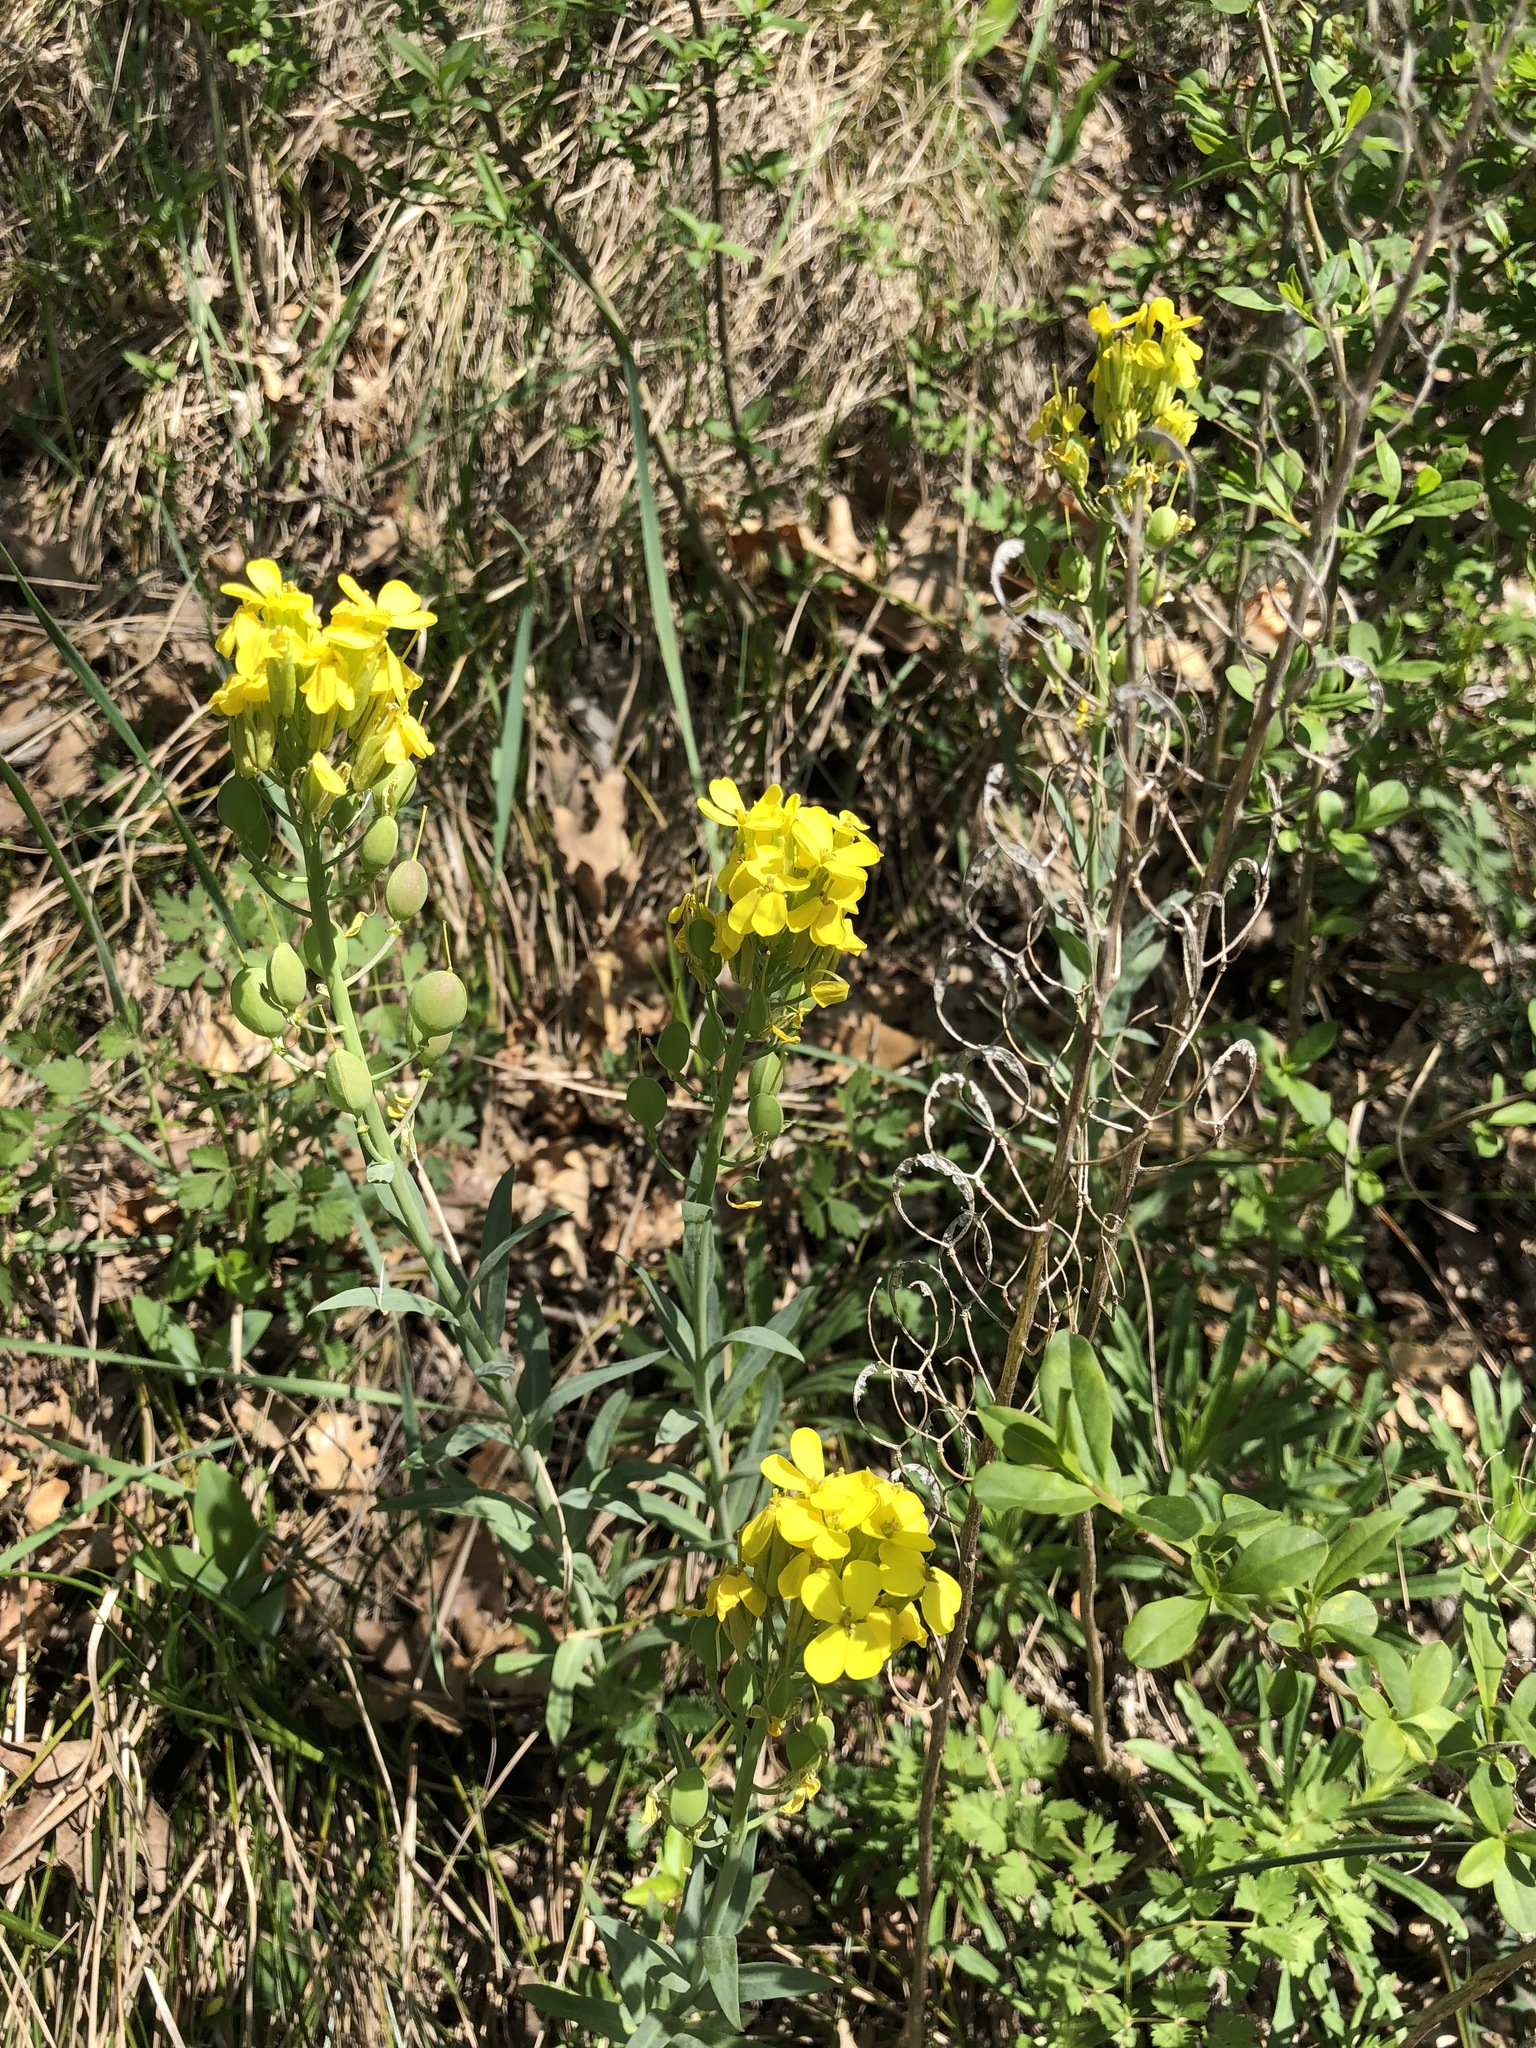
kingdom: Plantae
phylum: Tracheophyta
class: Magnoliopsida
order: Brassicales
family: Brassicaceae
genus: Alyssoides
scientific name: Alyssoides utriculata
